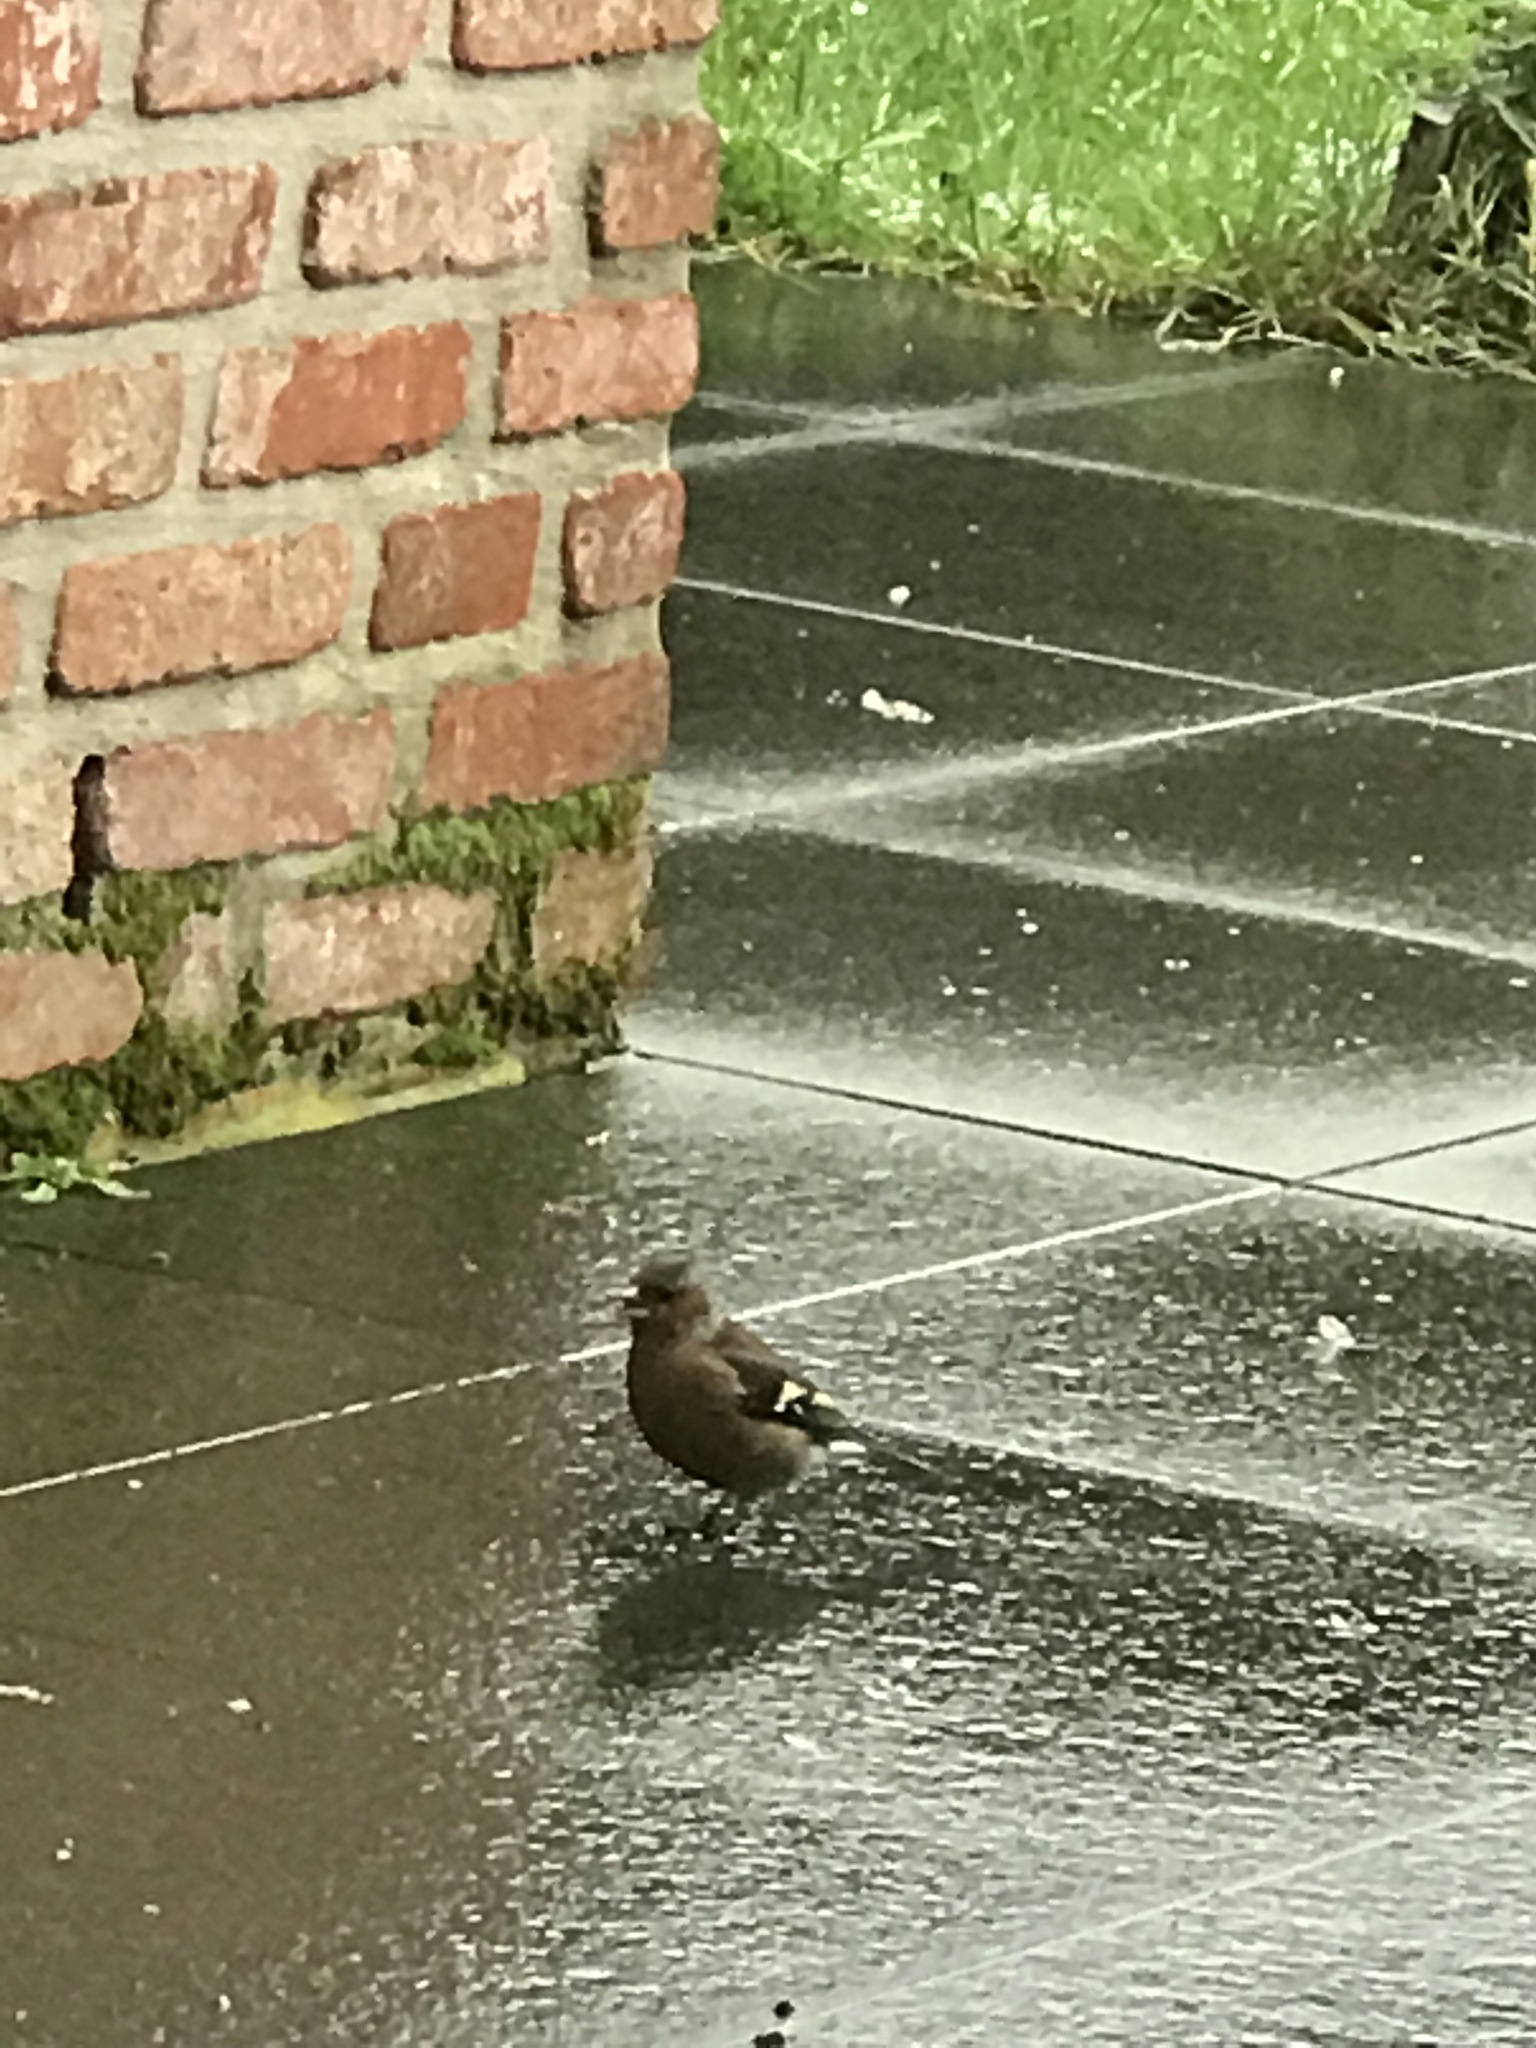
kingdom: Animalia
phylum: Chordata
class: Aves
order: Passeriformes
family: Fringillidae
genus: Fringilla
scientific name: Fringilla coelebs
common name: Common chaffinch
